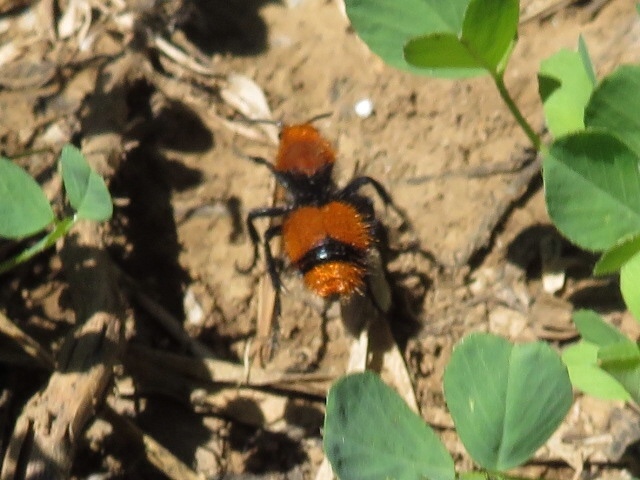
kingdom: Animalia
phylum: Arthropoda
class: Insecta
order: Hymenoptera
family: Mutillidae
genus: Dasymutilla
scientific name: Dasymutilla occidentalis
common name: Common eastern velvet ant
